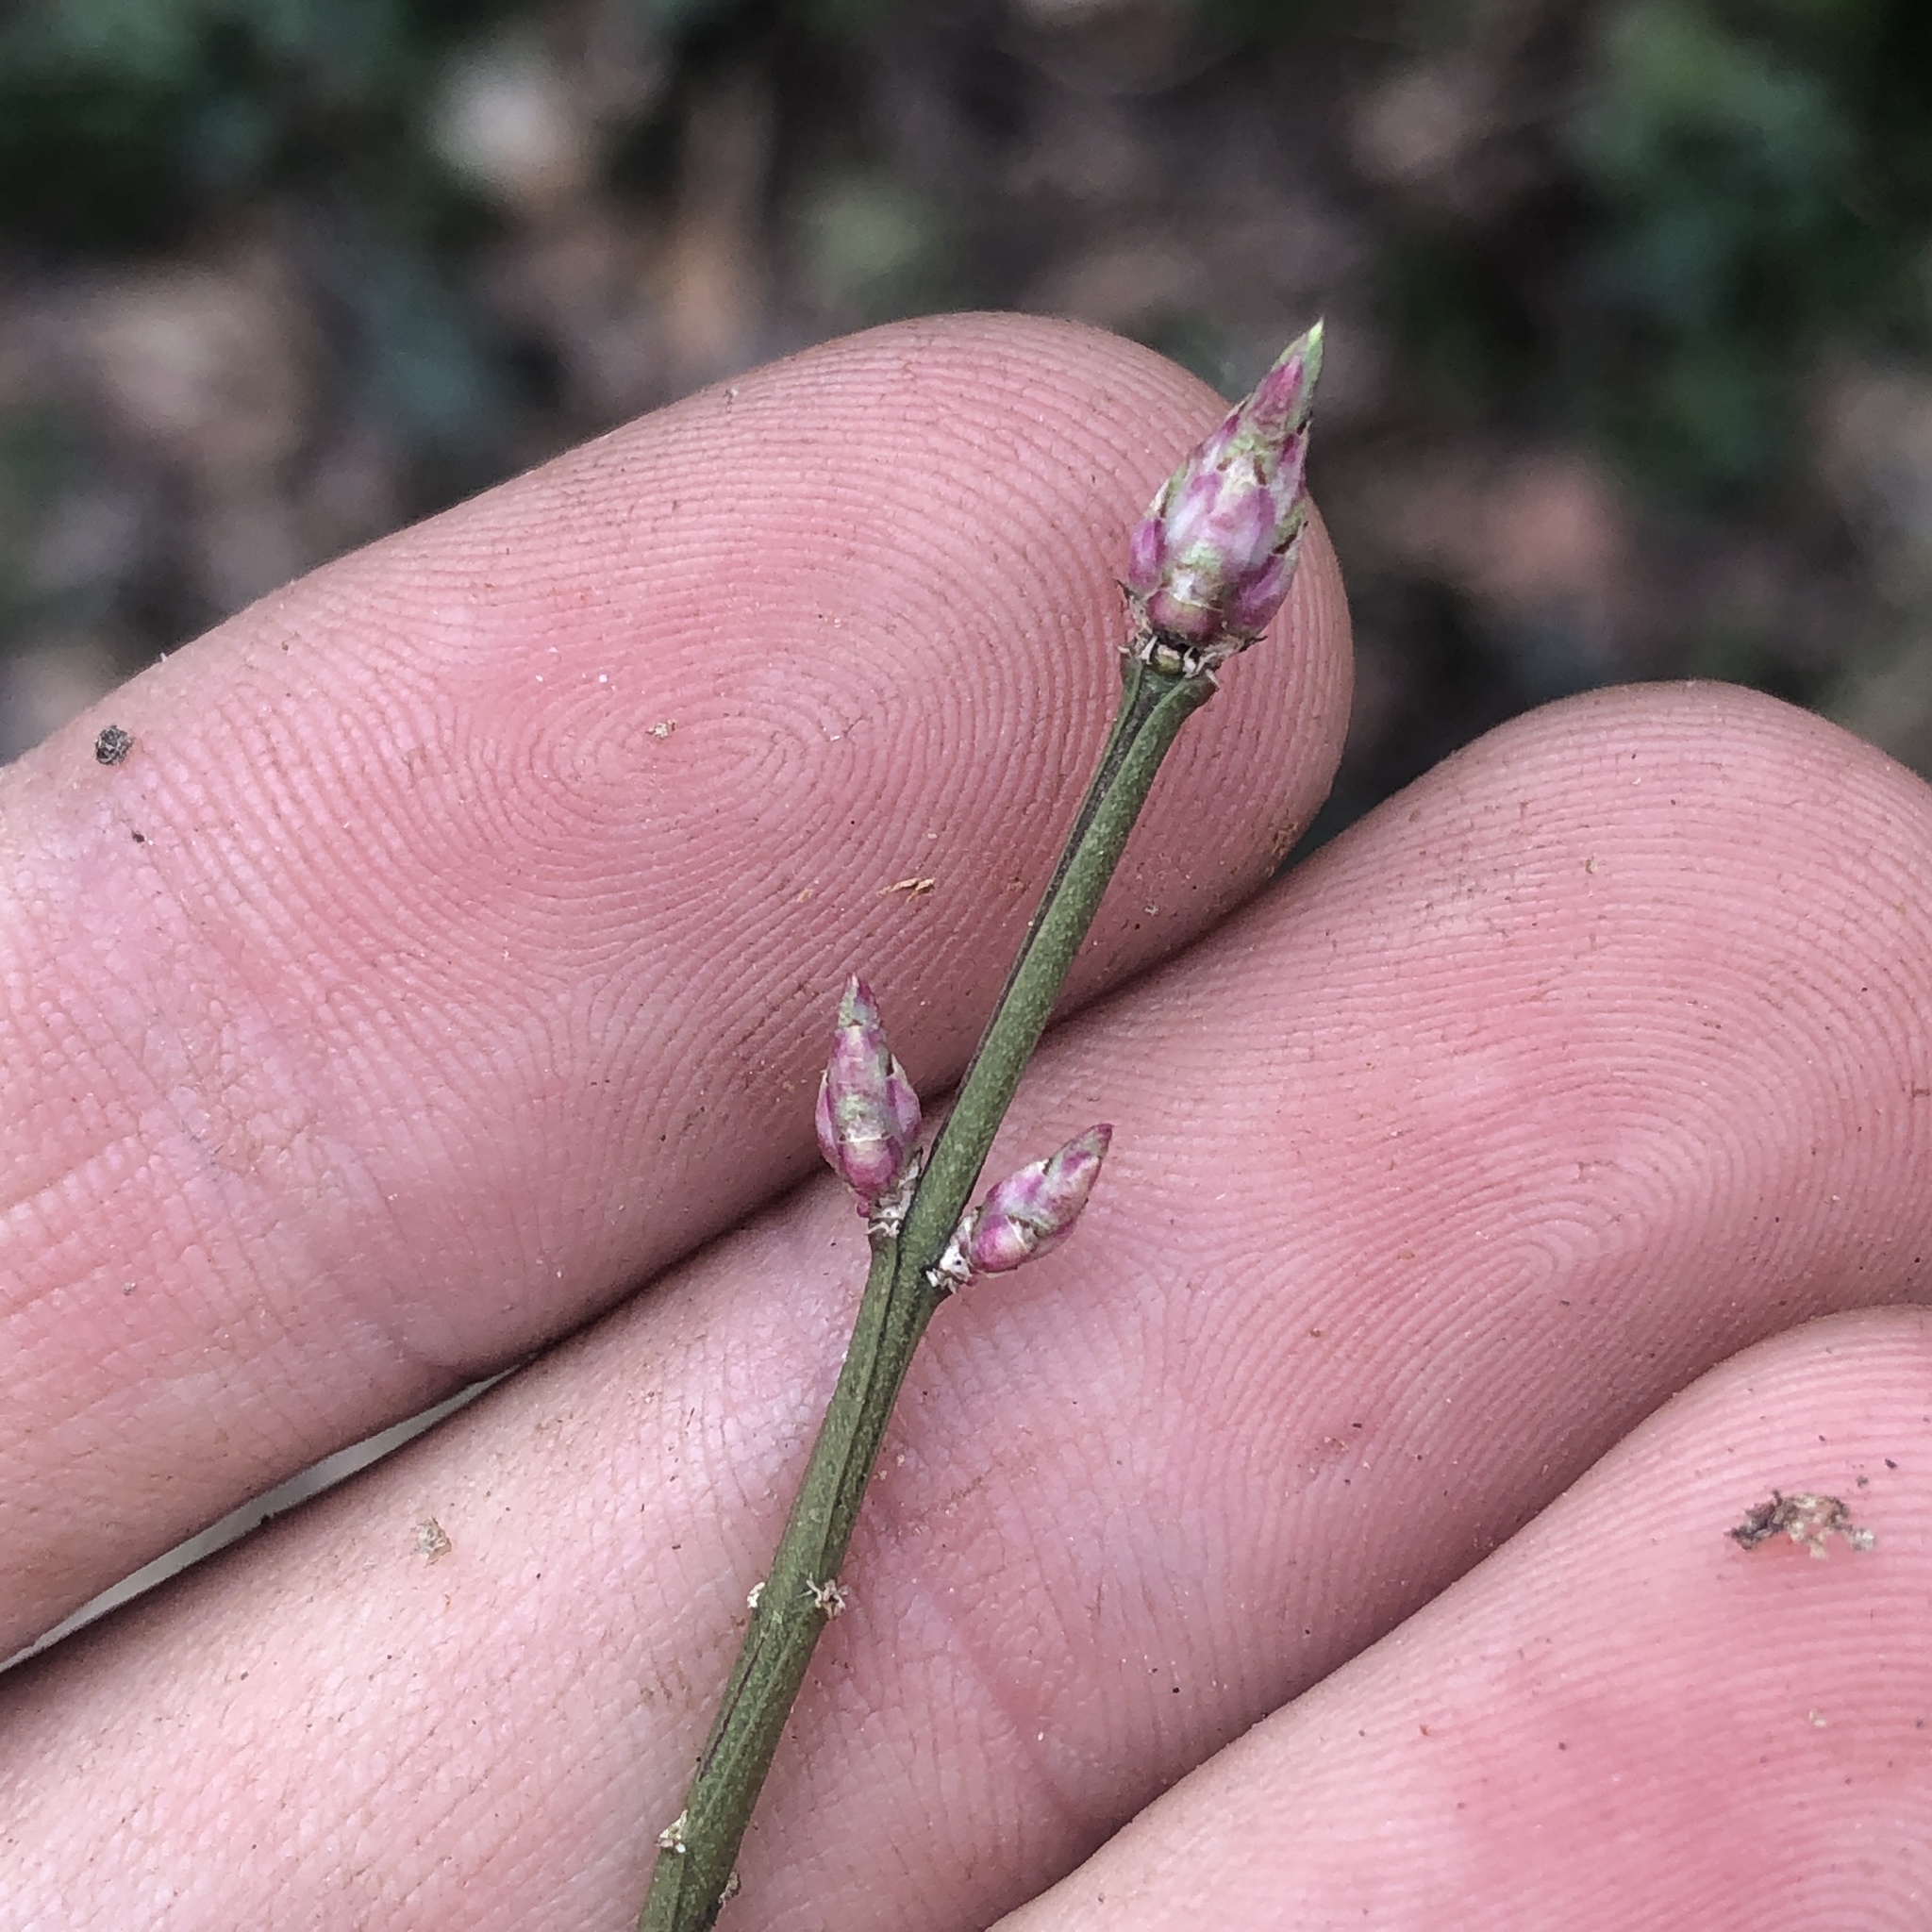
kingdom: Plantae
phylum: Tracheophyta
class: Magnoliopsida
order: Celastrales
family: Celastraceae
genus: Euonymus
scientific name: Euonymus alatus
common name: Winged euonymus
